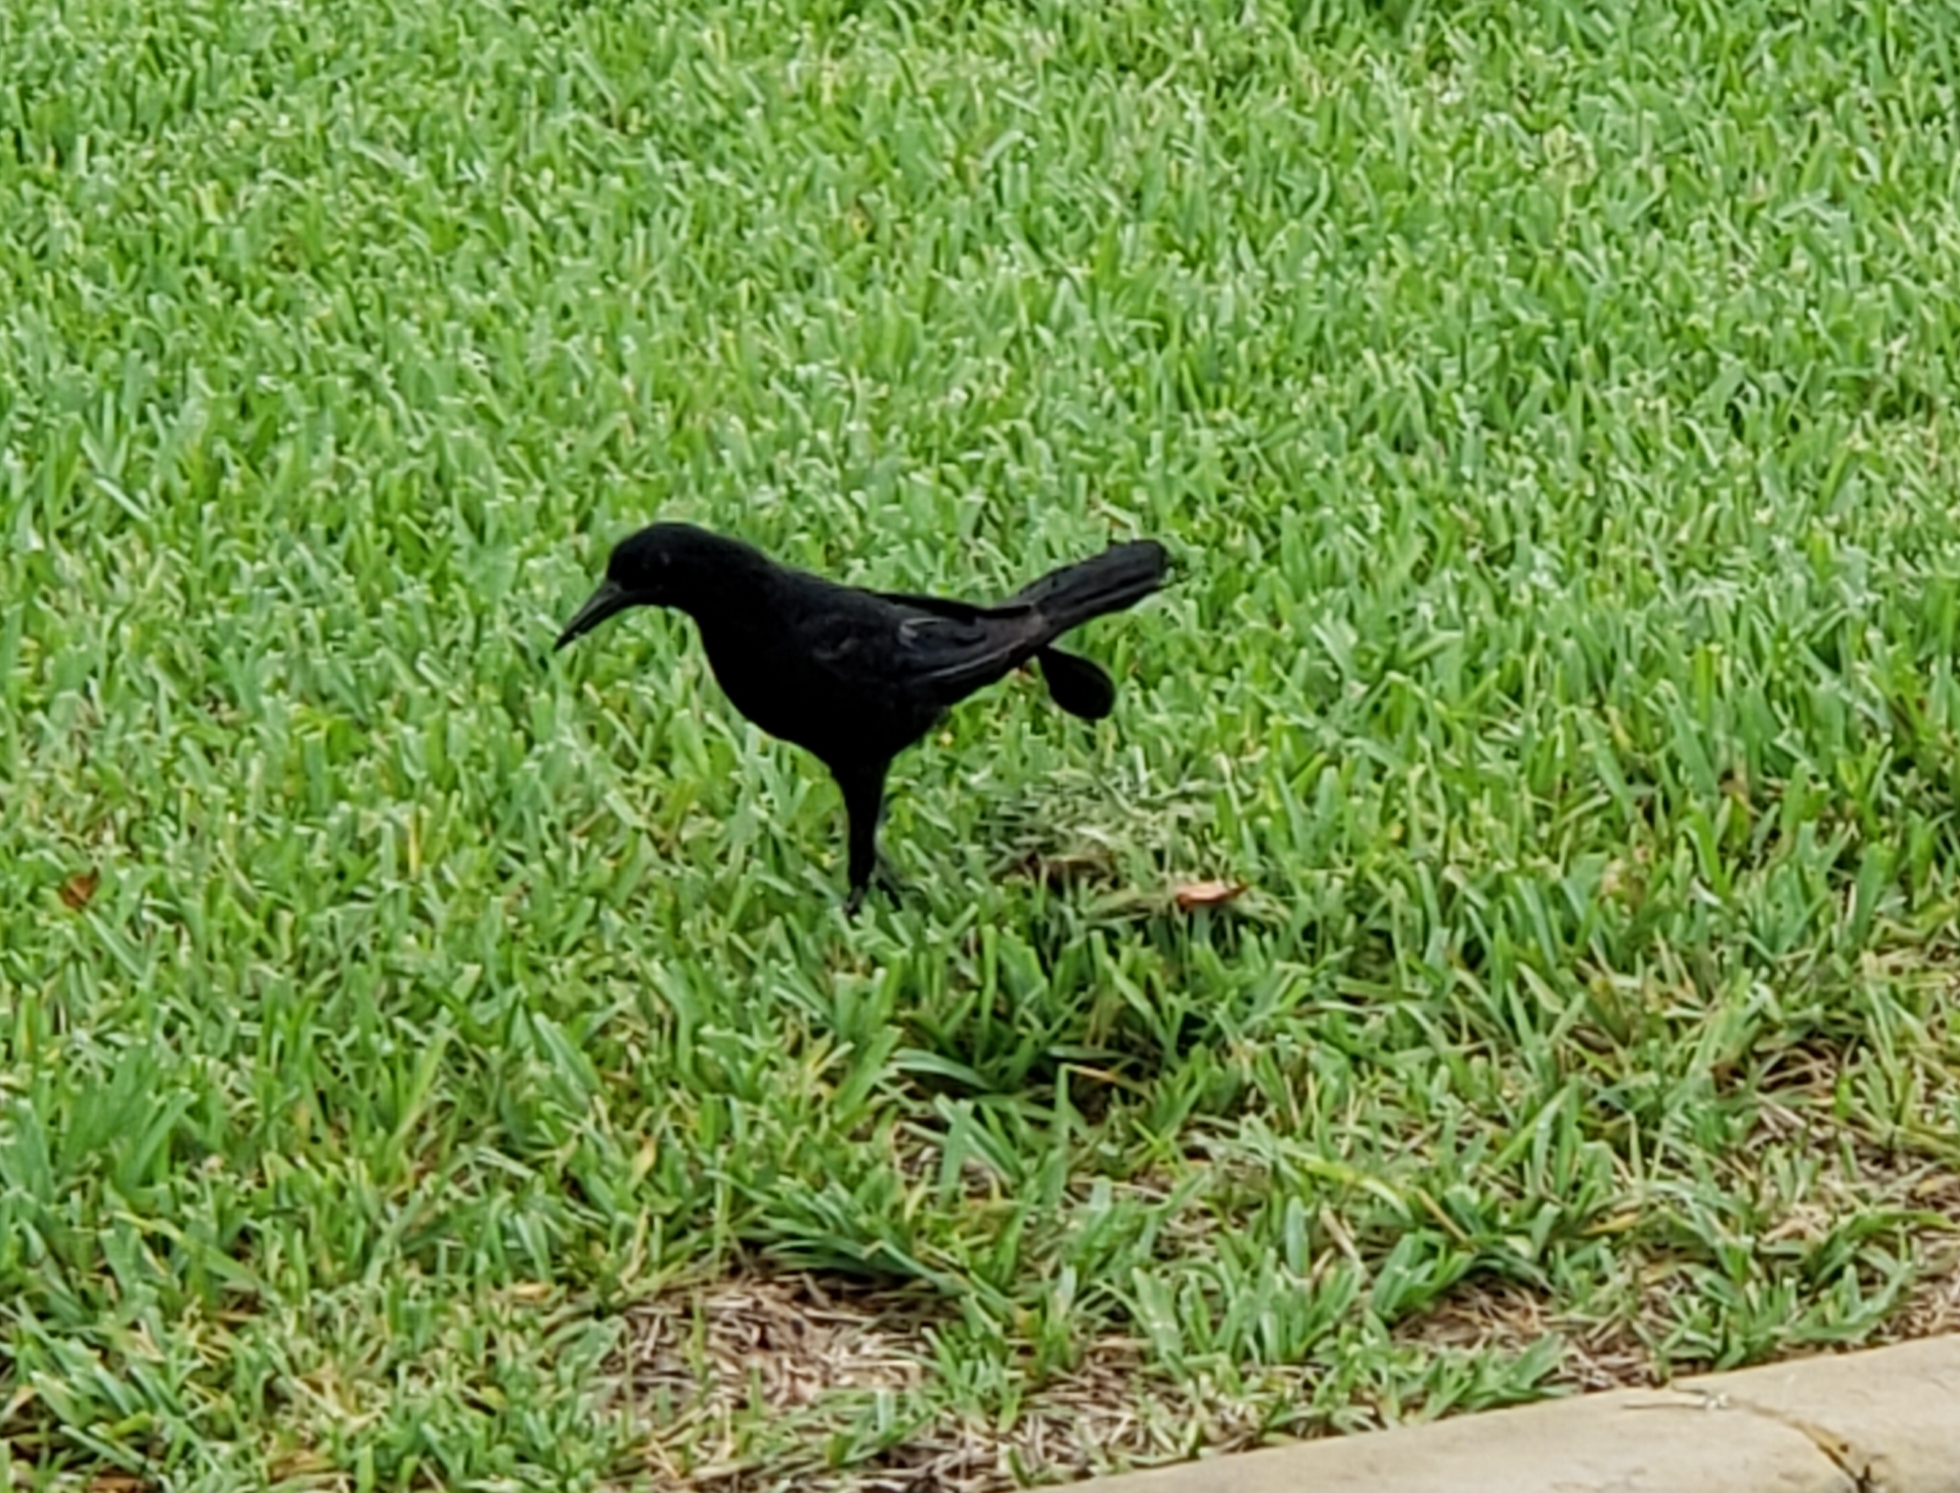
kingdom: Animalia
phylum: Chordata
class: Aves
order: Passeriformes
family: Icteridae
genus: Quiscalus
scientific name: Quiscalus major
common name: Boat-tailed grackle
